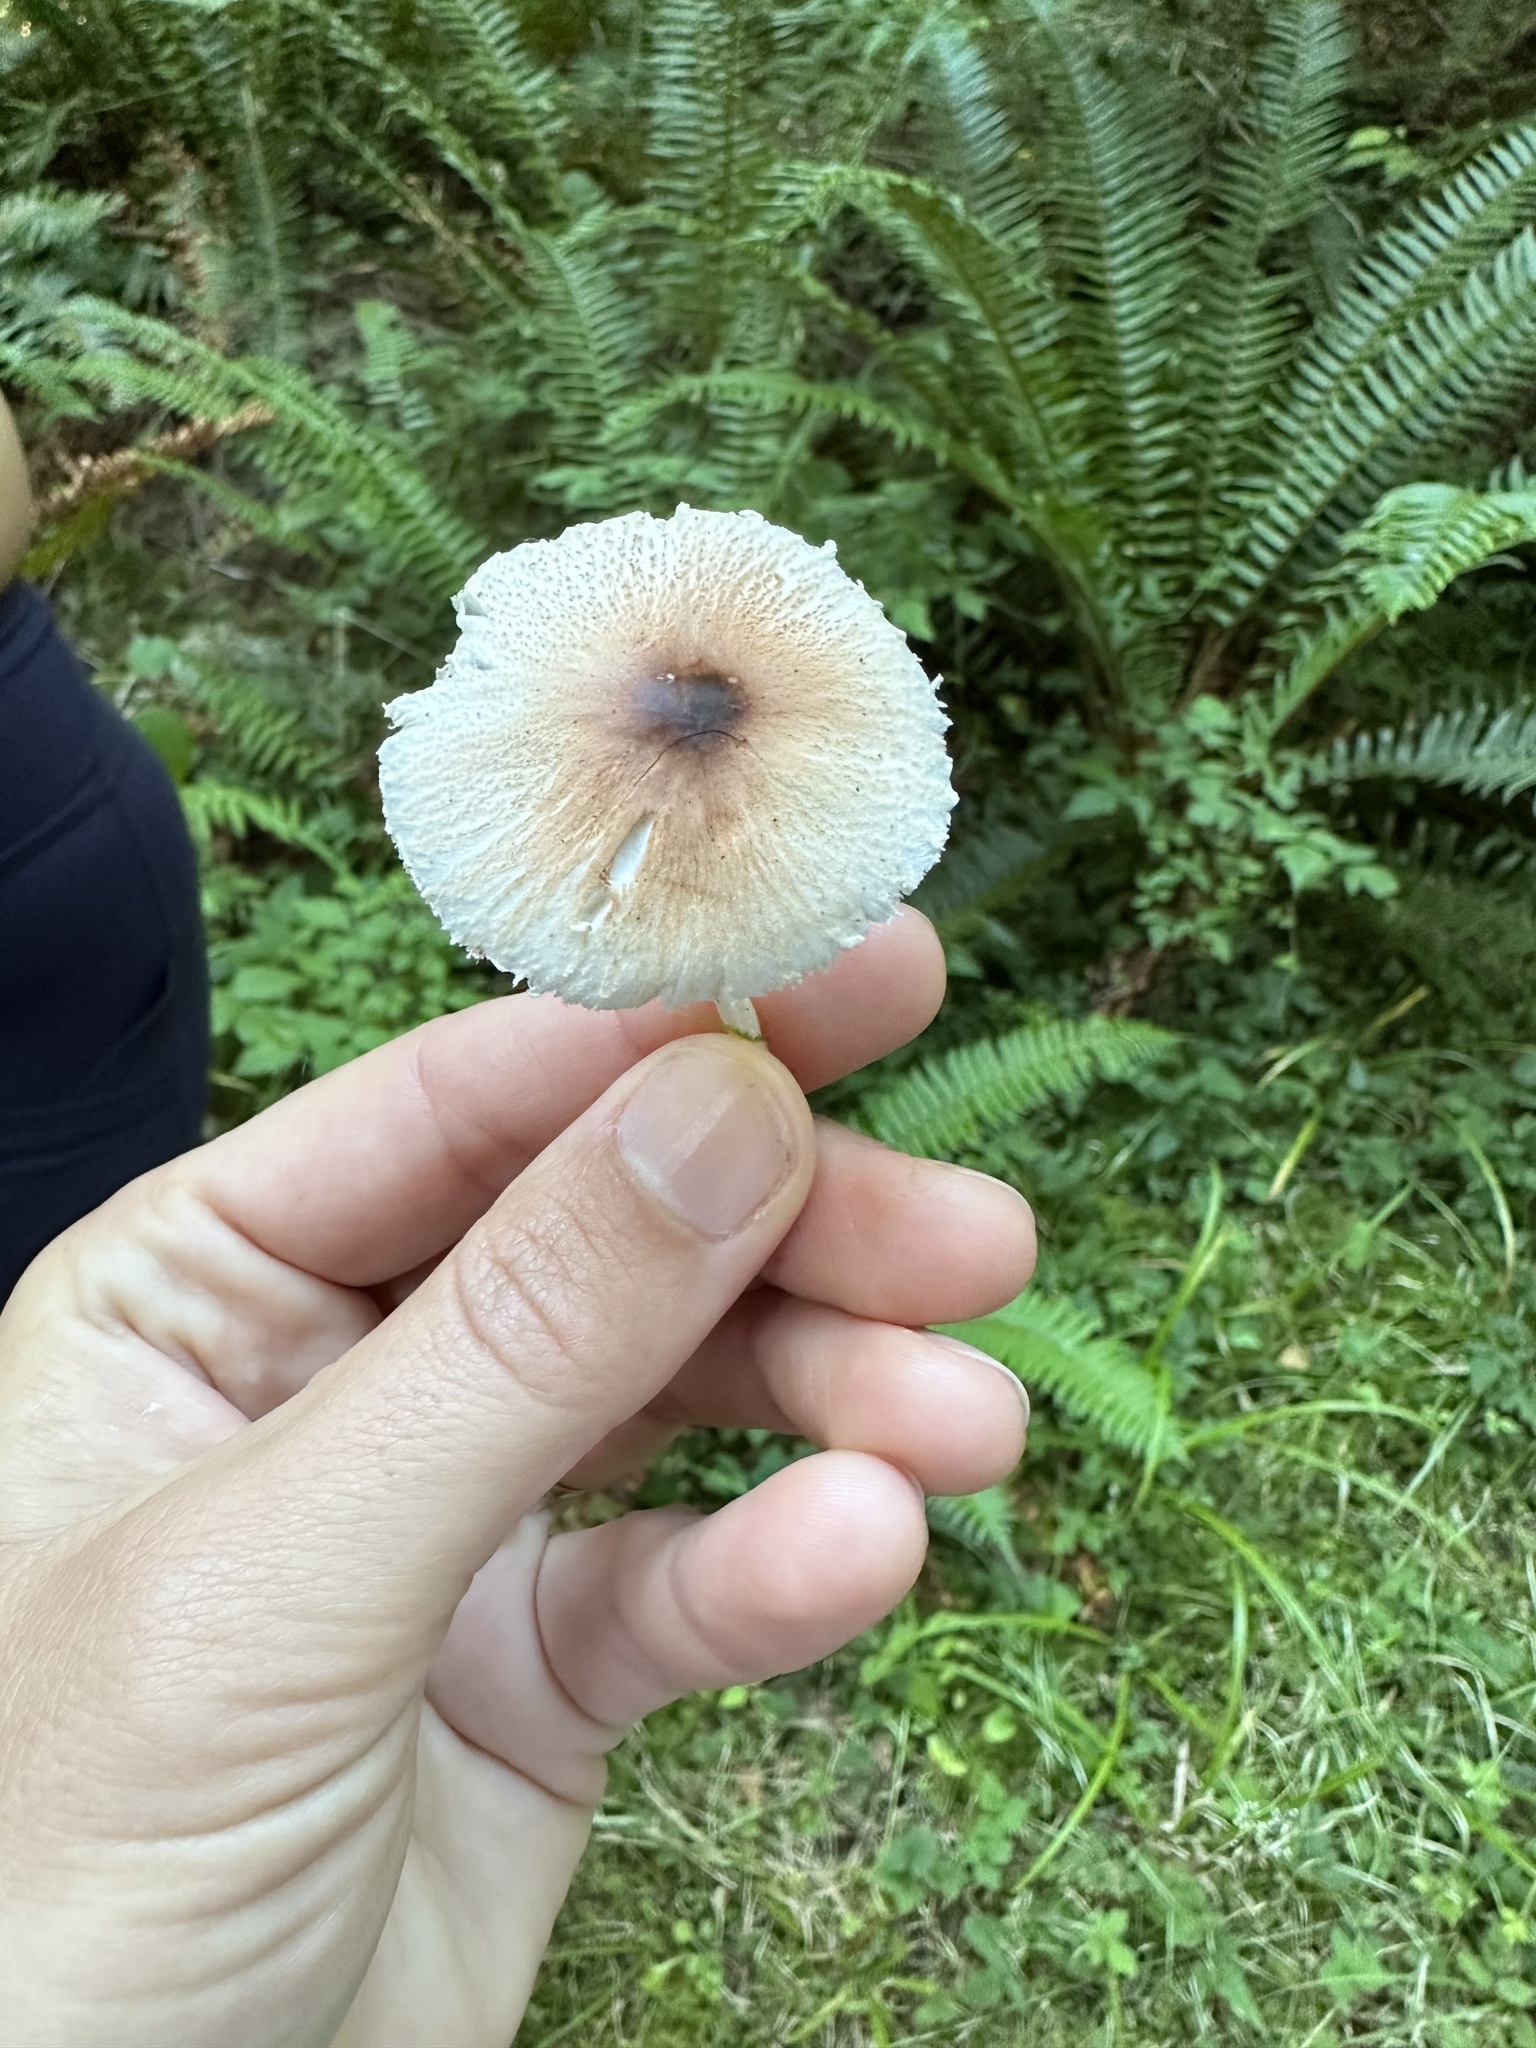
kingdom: Fungi
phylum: Basidiomycota
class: Agaricomycetes
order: Agaricales
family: Agaricaceae
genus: Lepiota
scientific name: Lepiota rubrotinctoides
